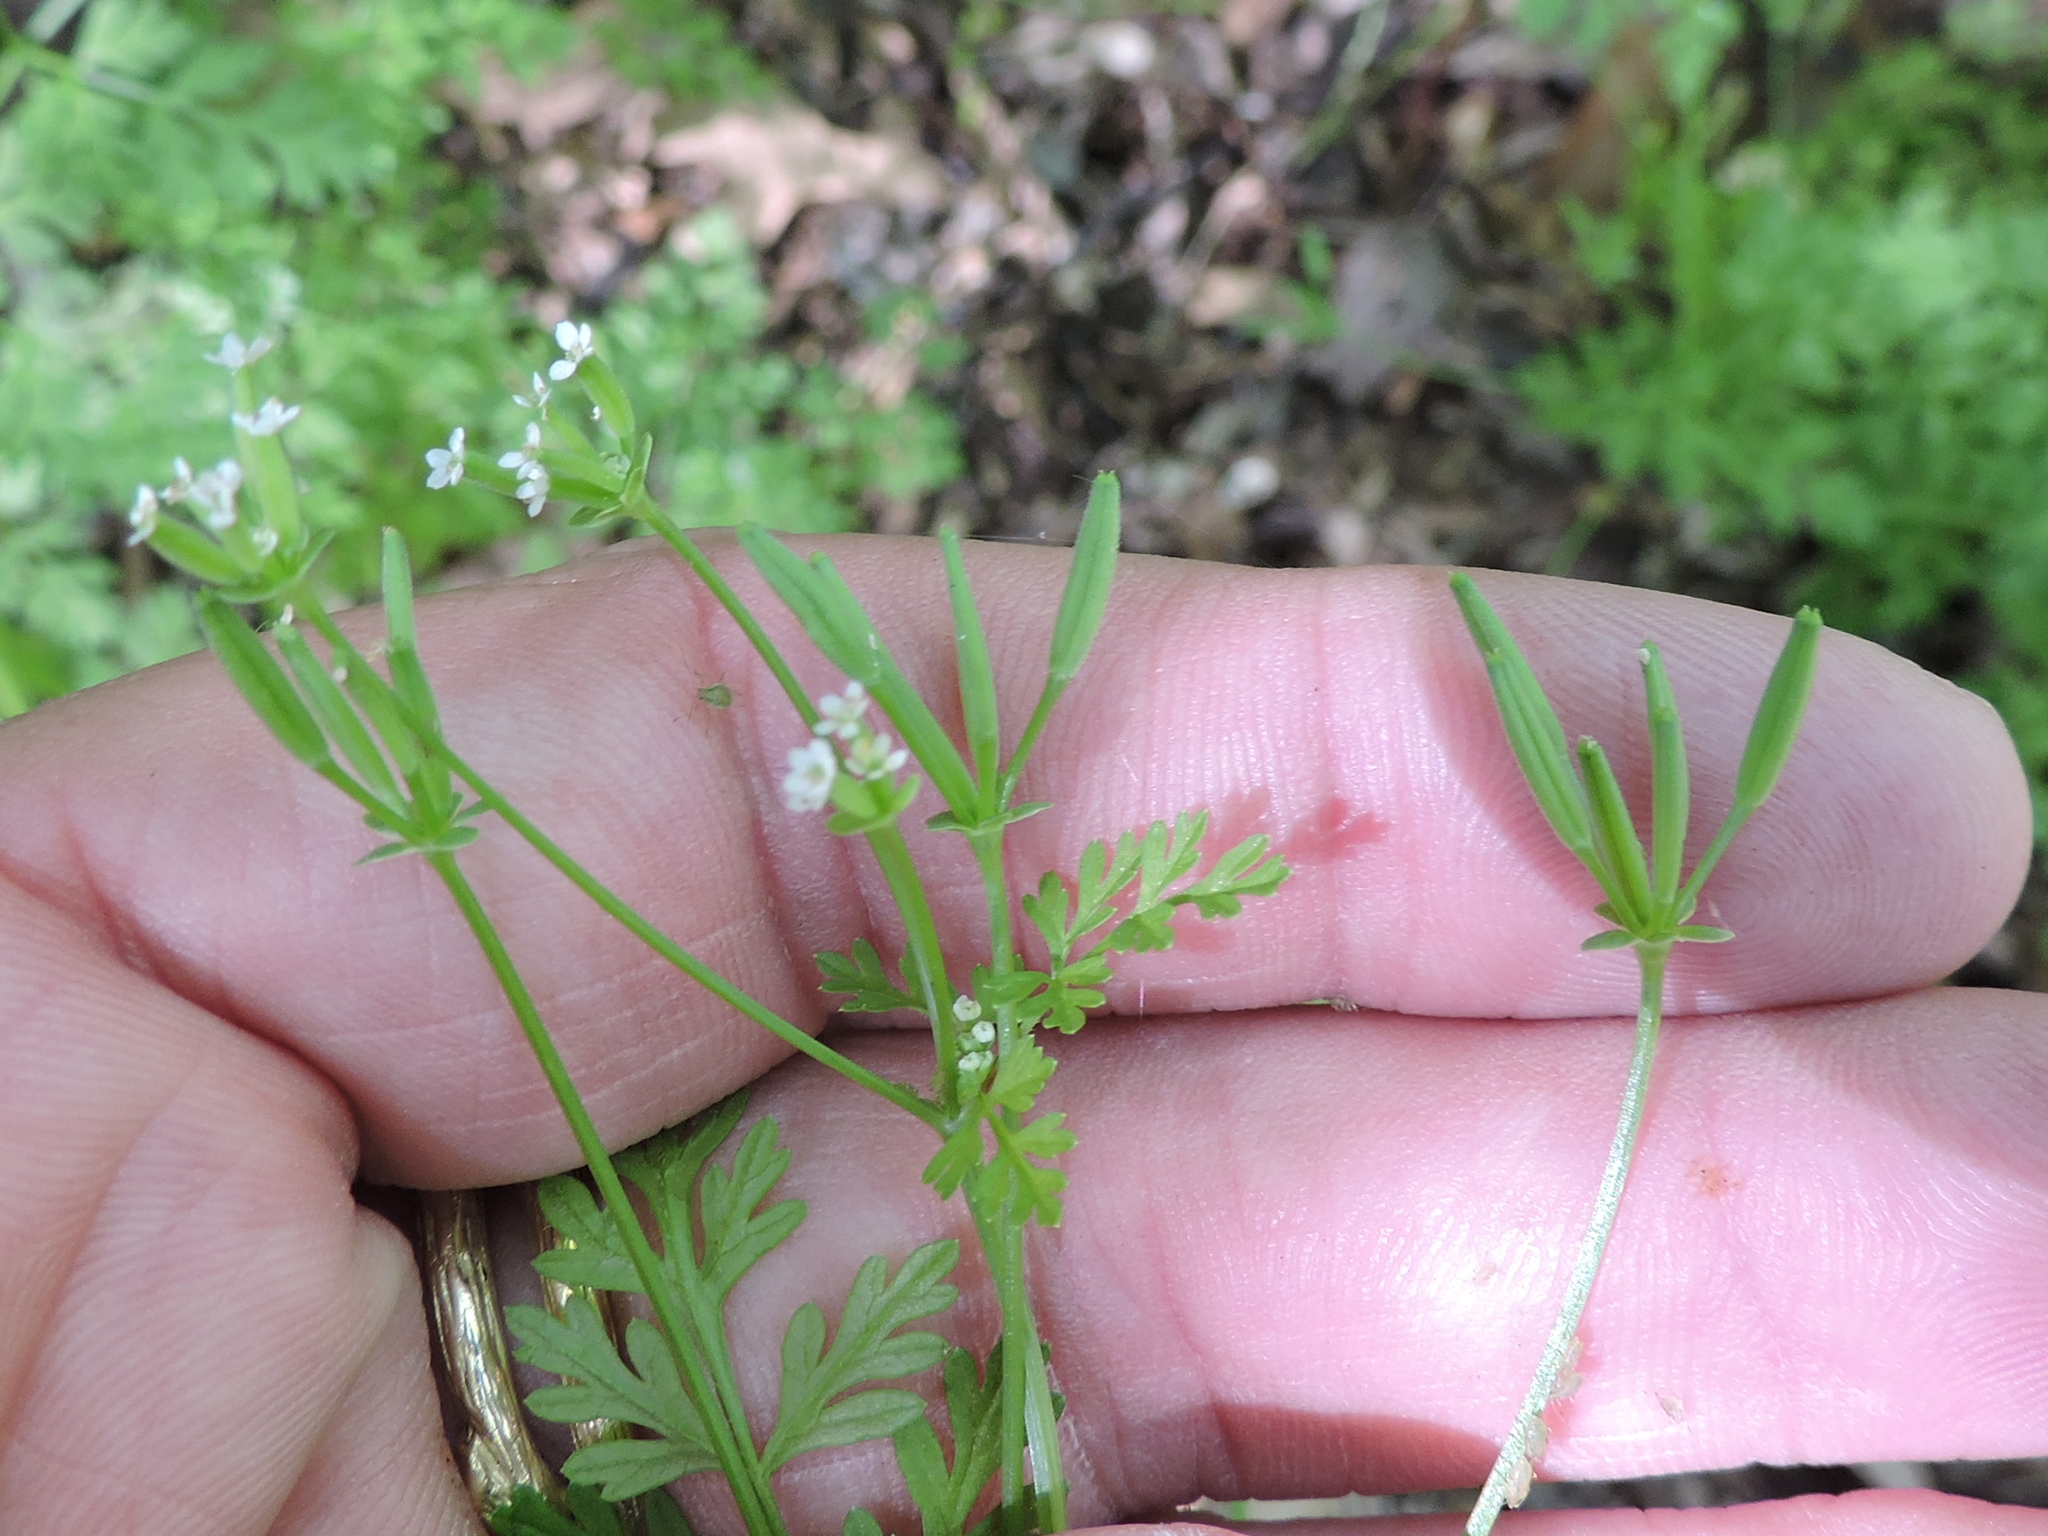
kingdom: Plantae
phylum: Tracheophyta
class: Magnoliopsida
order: Apiales
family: Apiaceae
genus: Chaerophyllum
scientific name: Chaerophyllum tainturieri
